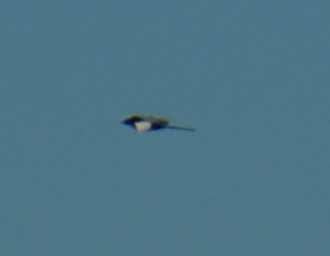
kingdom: Animalia
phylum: Chordata
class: Aves
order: Passeriformes
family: Corvidae
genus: Pica
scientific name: Pica hudsonia
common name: Black-billed magpie
